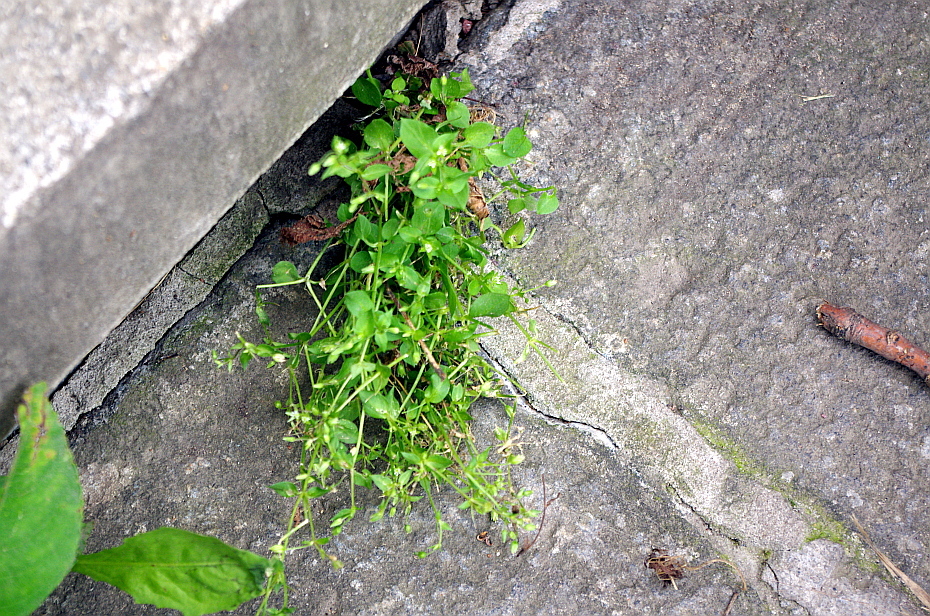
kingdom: Plantae
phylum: Tracheophyta
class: Magnoliopsida
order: Caryophyllales
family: Caryophyllaceae
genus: Stellaria
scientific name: Stellaria media
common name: Common chickweed
